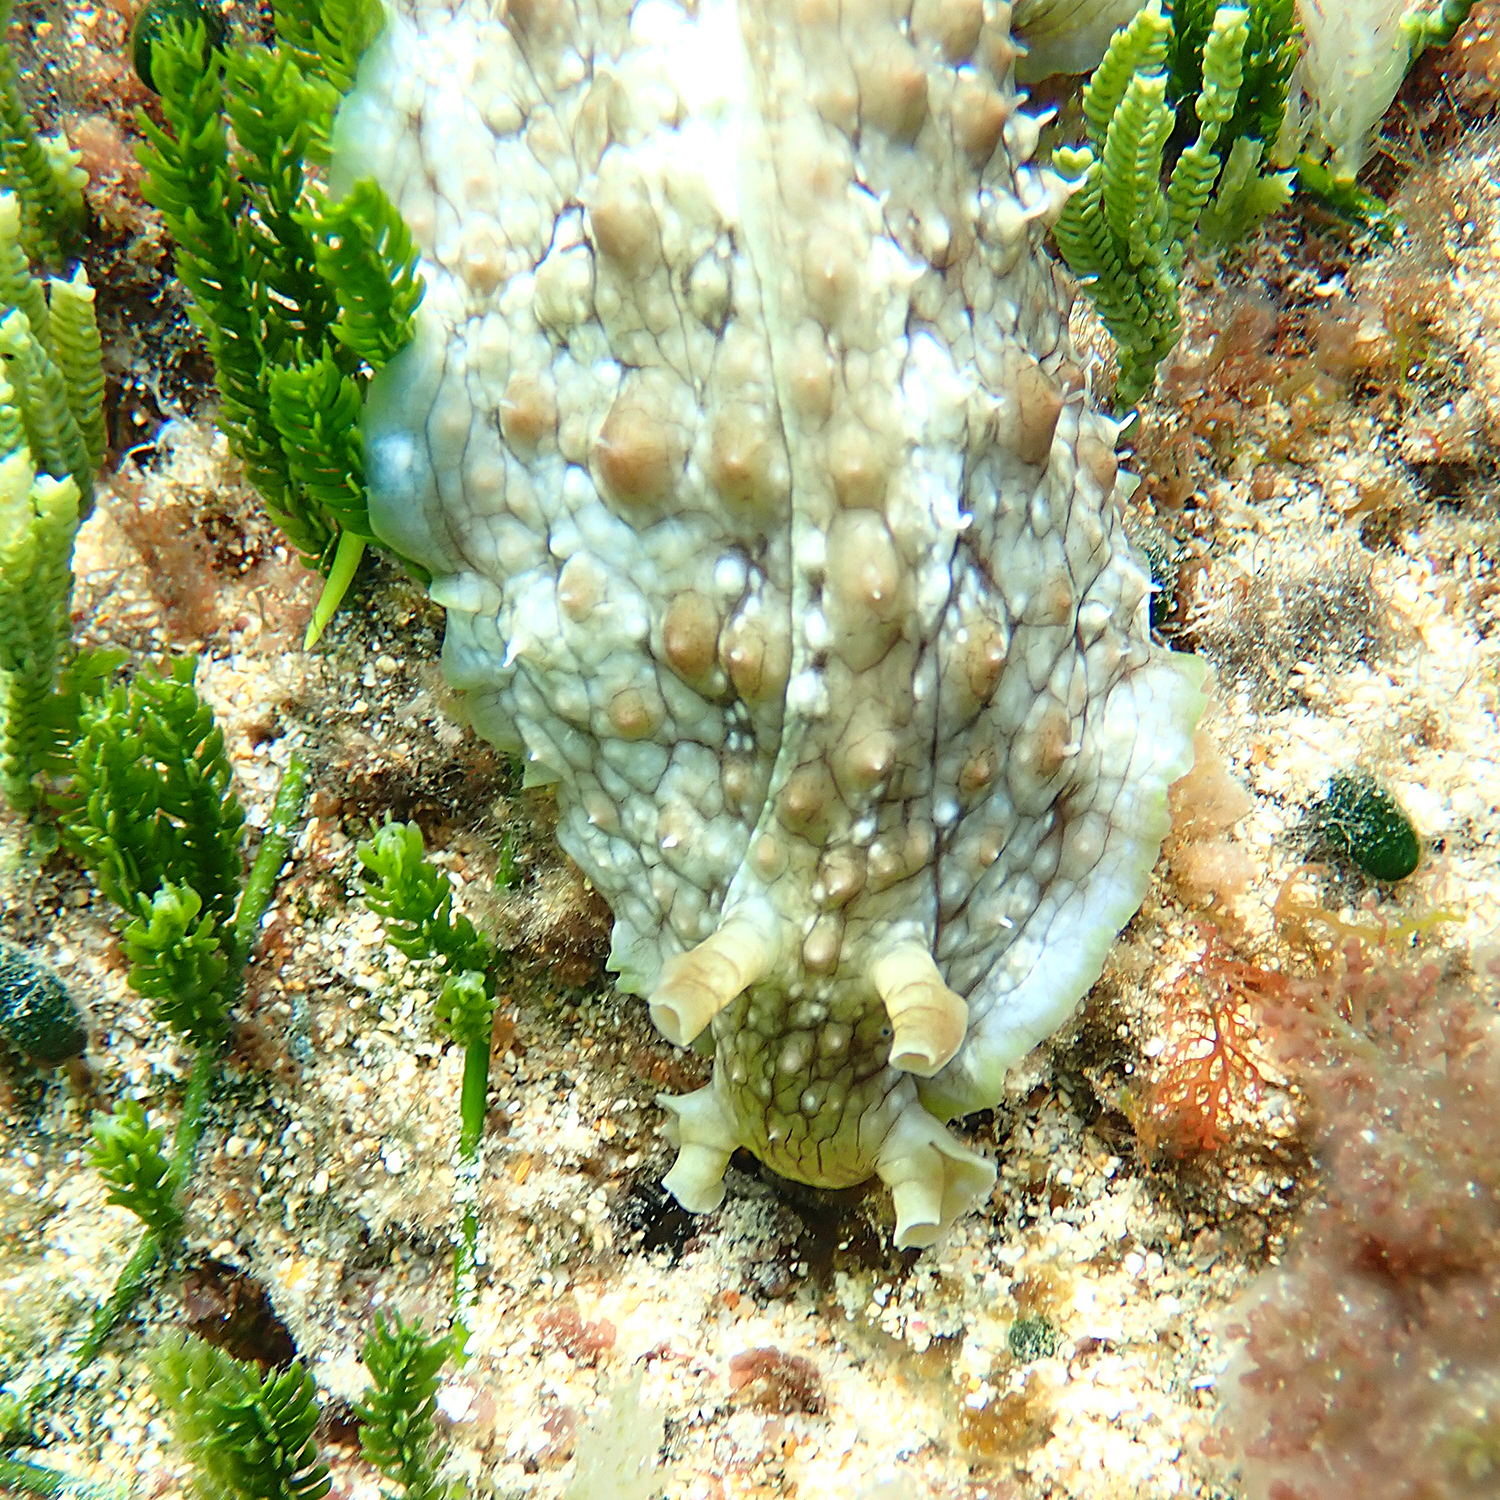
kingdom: Animalia
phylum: Mollusca
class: Gastropoda
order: Aplysiida
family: Aplysiidae
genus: Dolabrifera
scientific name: Dolabrifera brazieri
